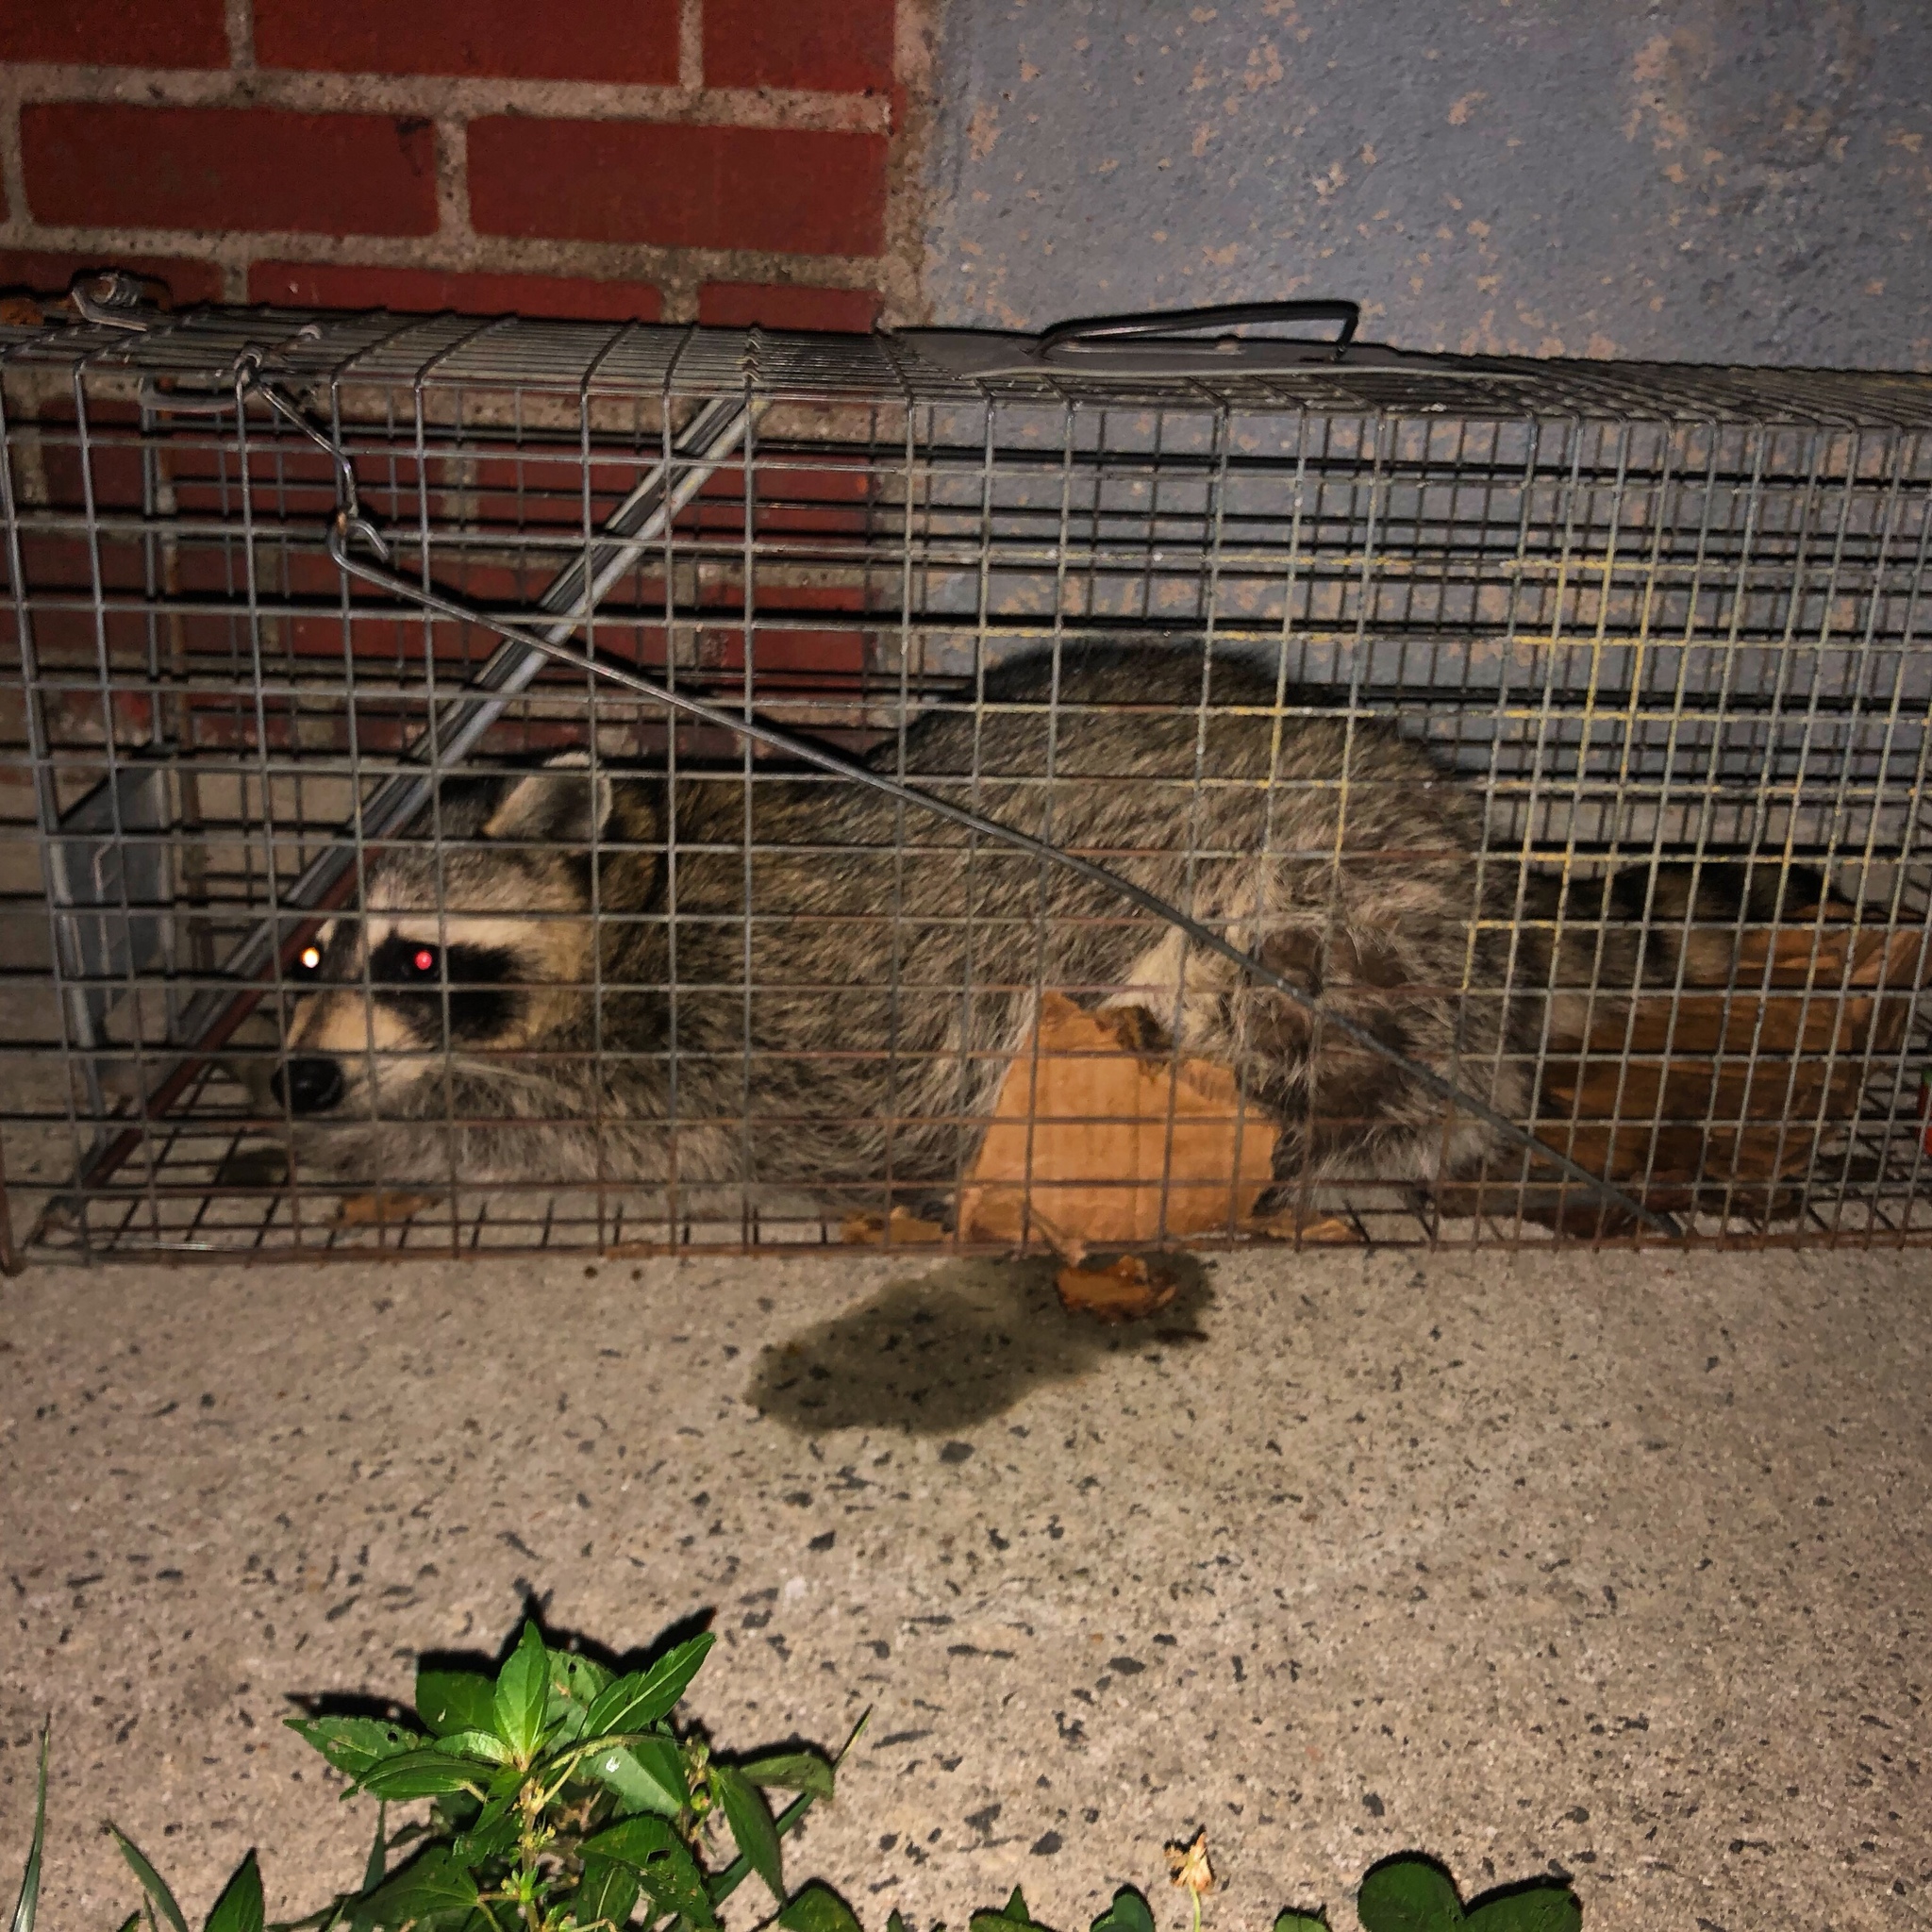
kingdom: Animalia
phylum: Chordata
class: Mammalia
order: Carnivora
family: Procyonidae
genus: Procyon
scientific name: Procyon lotor
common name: Raccoon
